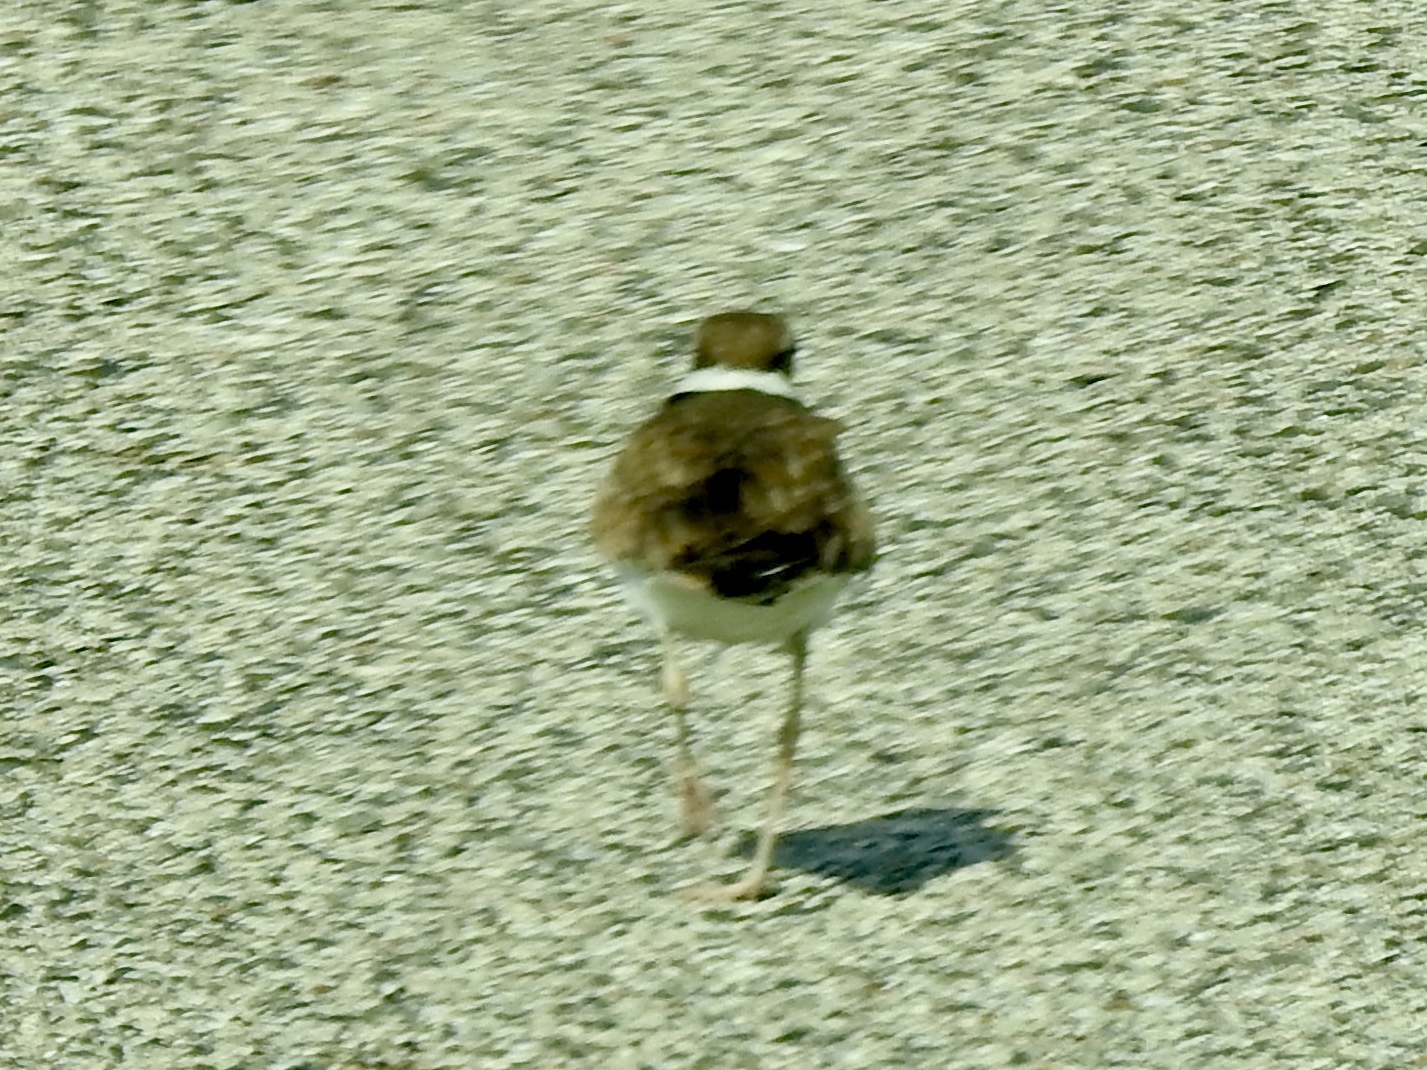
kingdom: Animalia
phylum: Chordata
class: Aves
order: Charadriiformes
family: Charadriidae
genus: Charadrius
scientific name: Charadrius vociferus
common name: Killdeer
